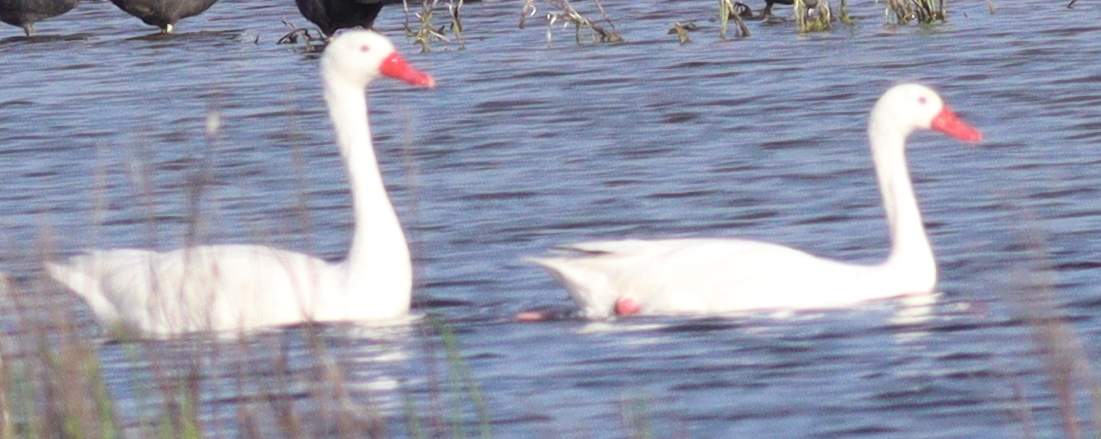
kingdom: Animalia
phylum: Chordata
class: Aves
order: Anseriformes
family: Anatidae
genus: Coscoroba
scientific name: Coscoroba coscoroba
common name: Coscoroba swan
